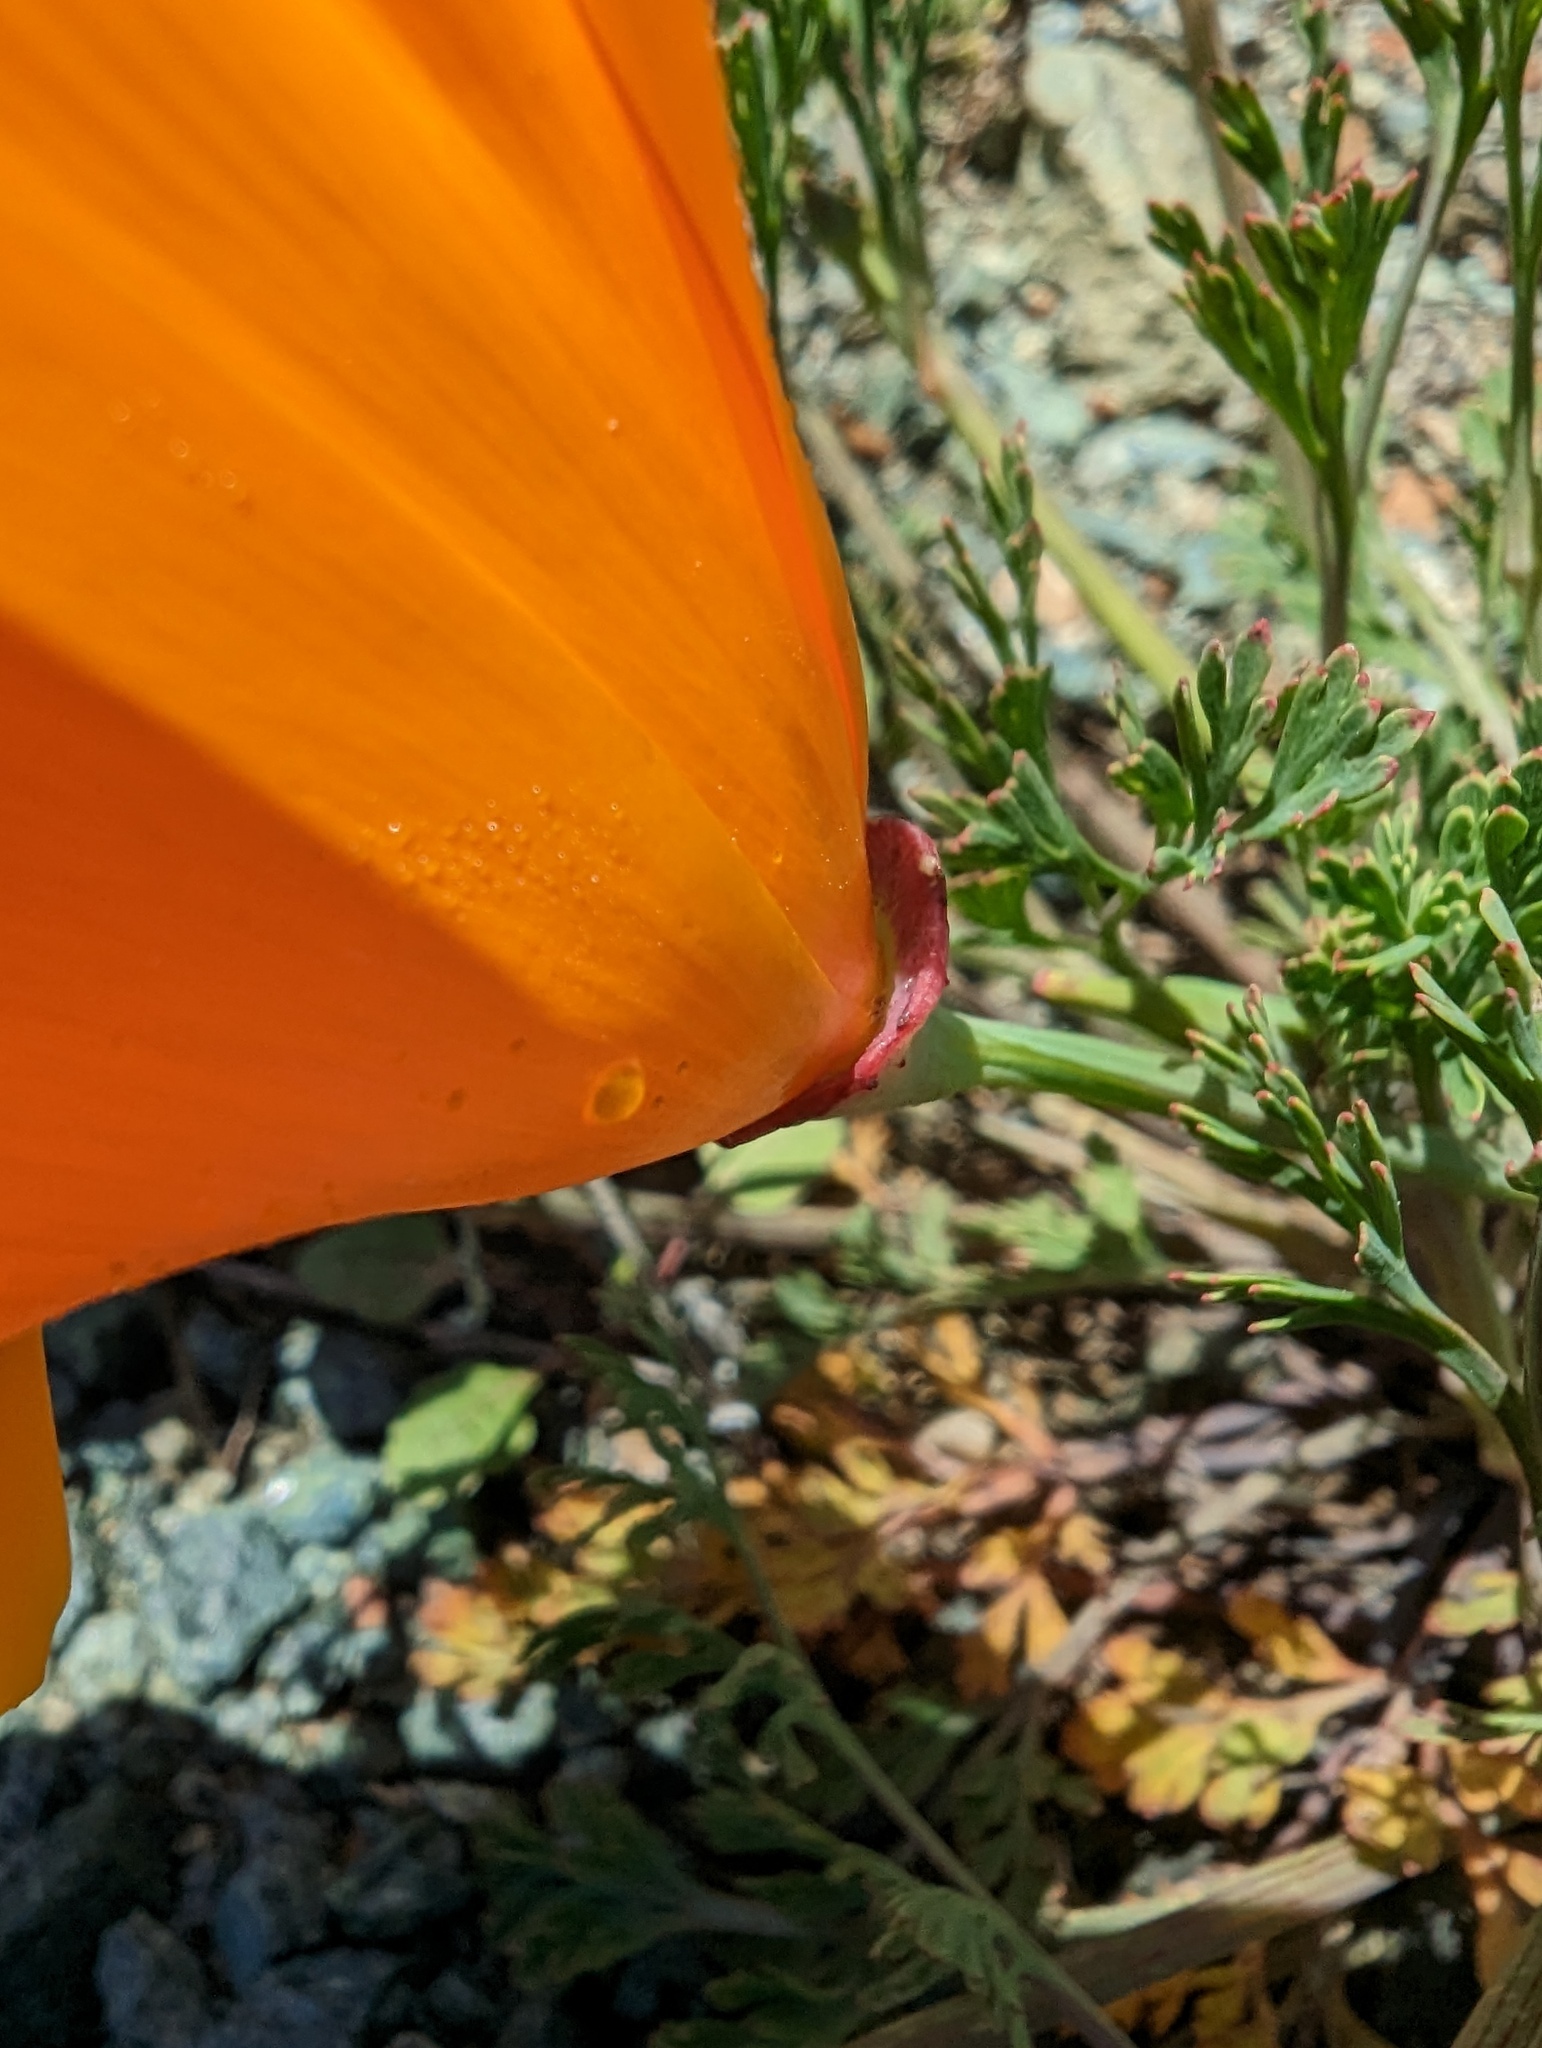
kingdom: Plantae
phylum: Tracheophyta
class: Magnoliopsida
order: Ranunculales
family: Papaveraceae
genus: Eschscholzia
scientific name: Eschscholzia californica
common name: California poppy
